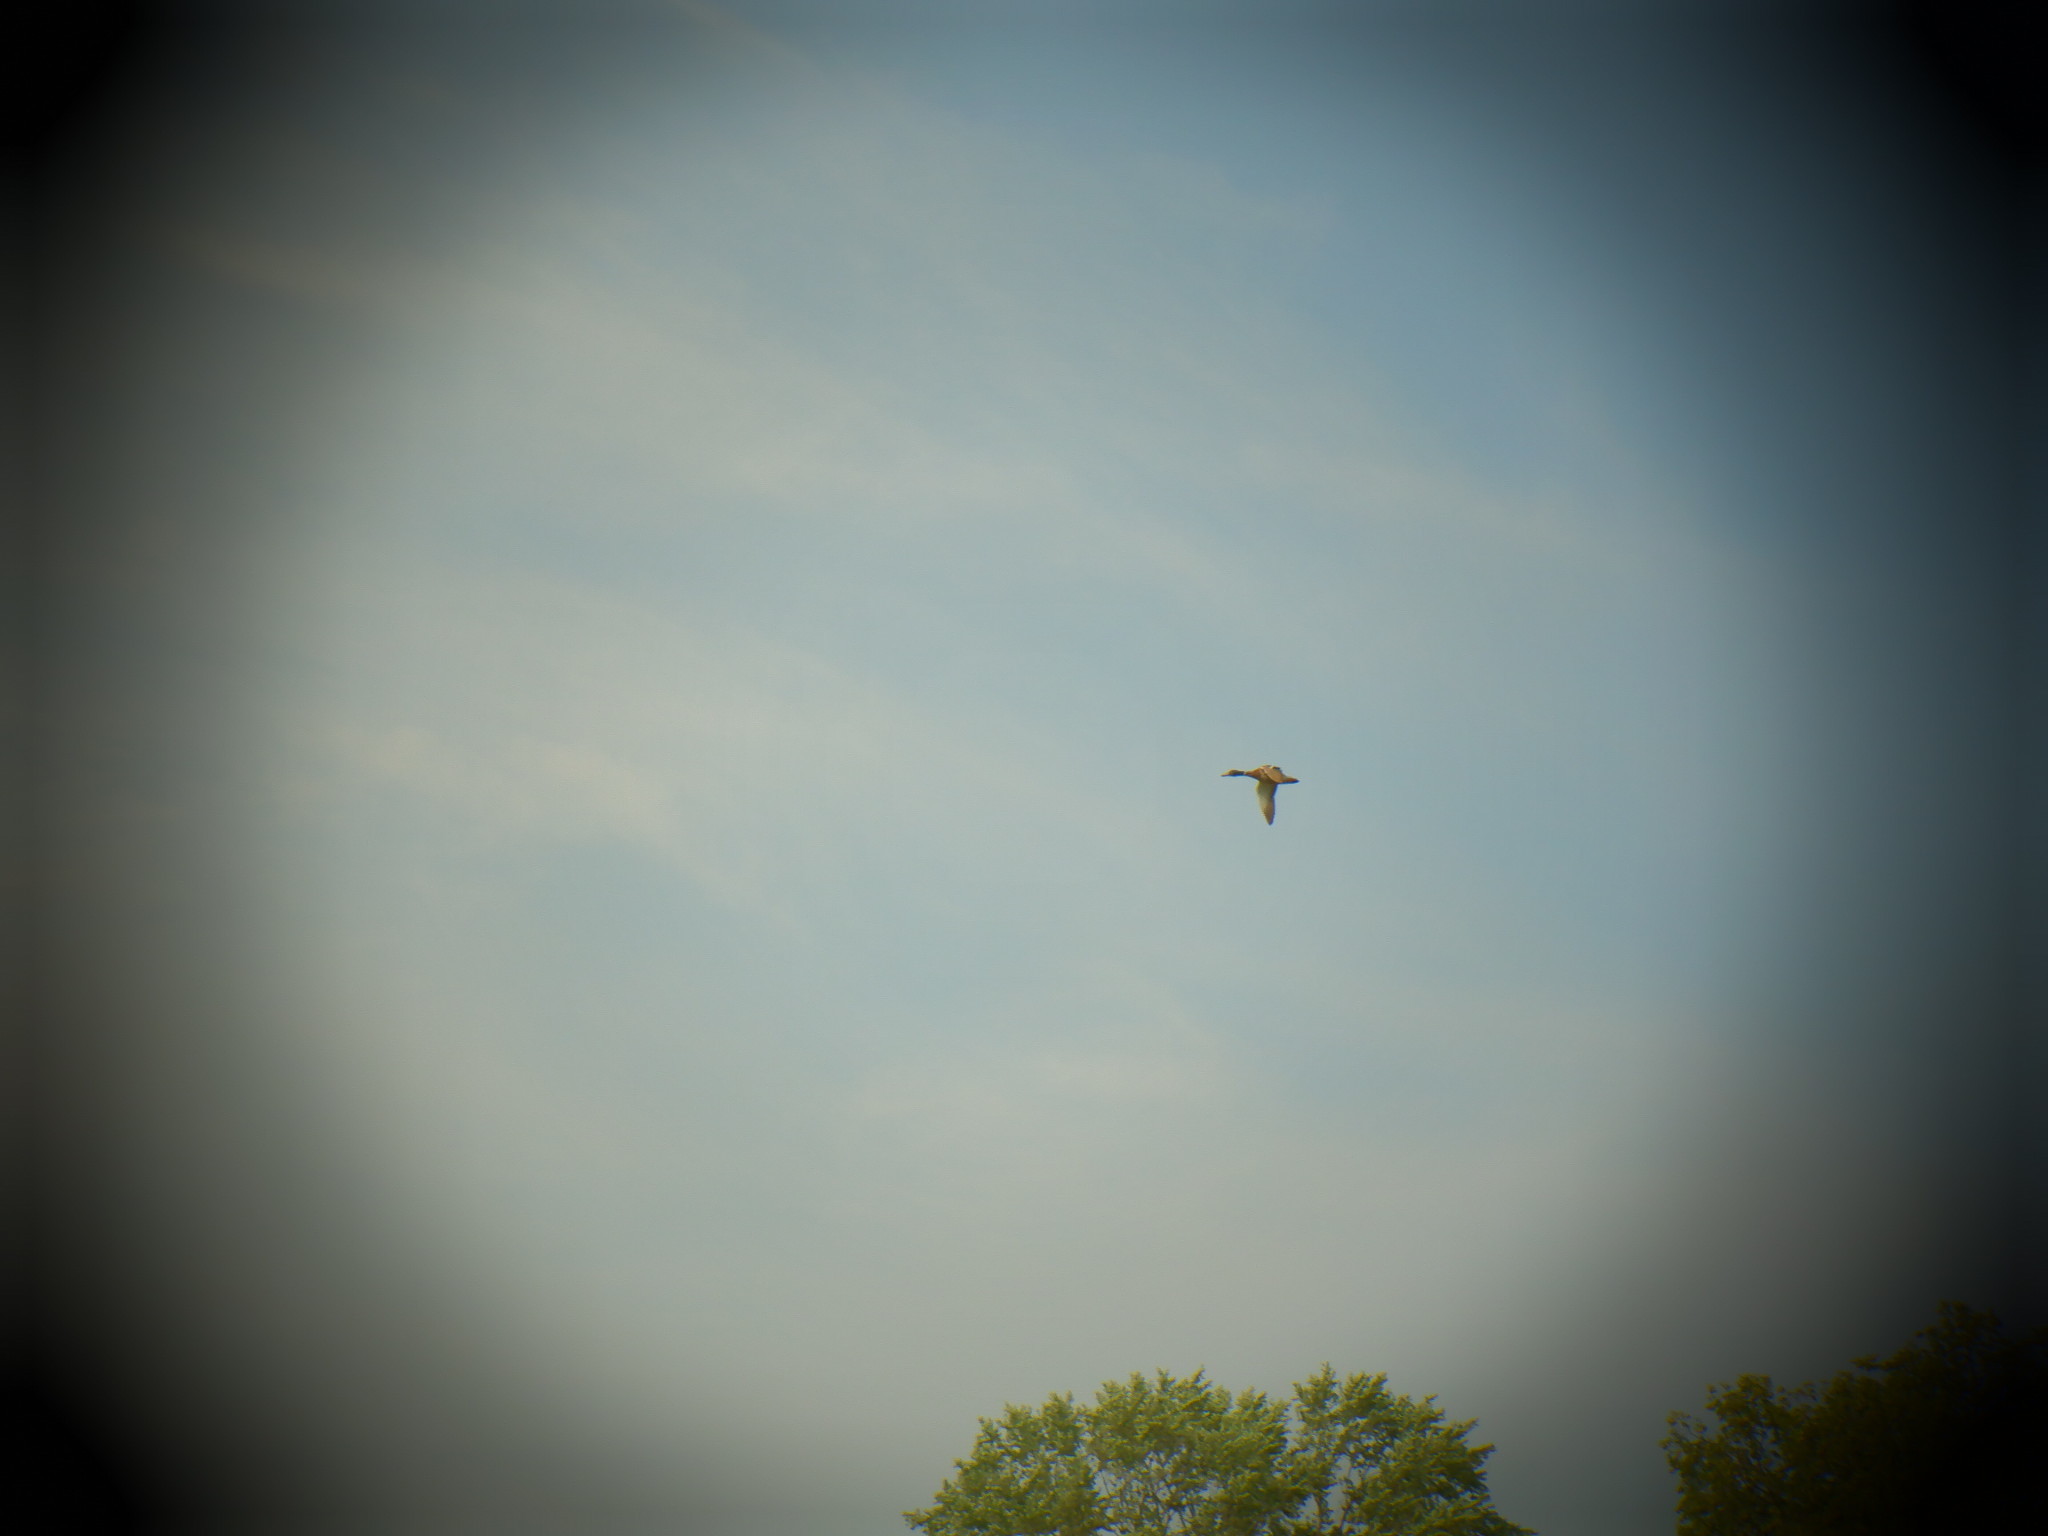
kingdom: Animalia
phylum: Chordata
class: Aves
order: Anseriformes
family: Anatidae
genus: Anas
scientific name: Anas platyrhynchos
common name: Mallard
